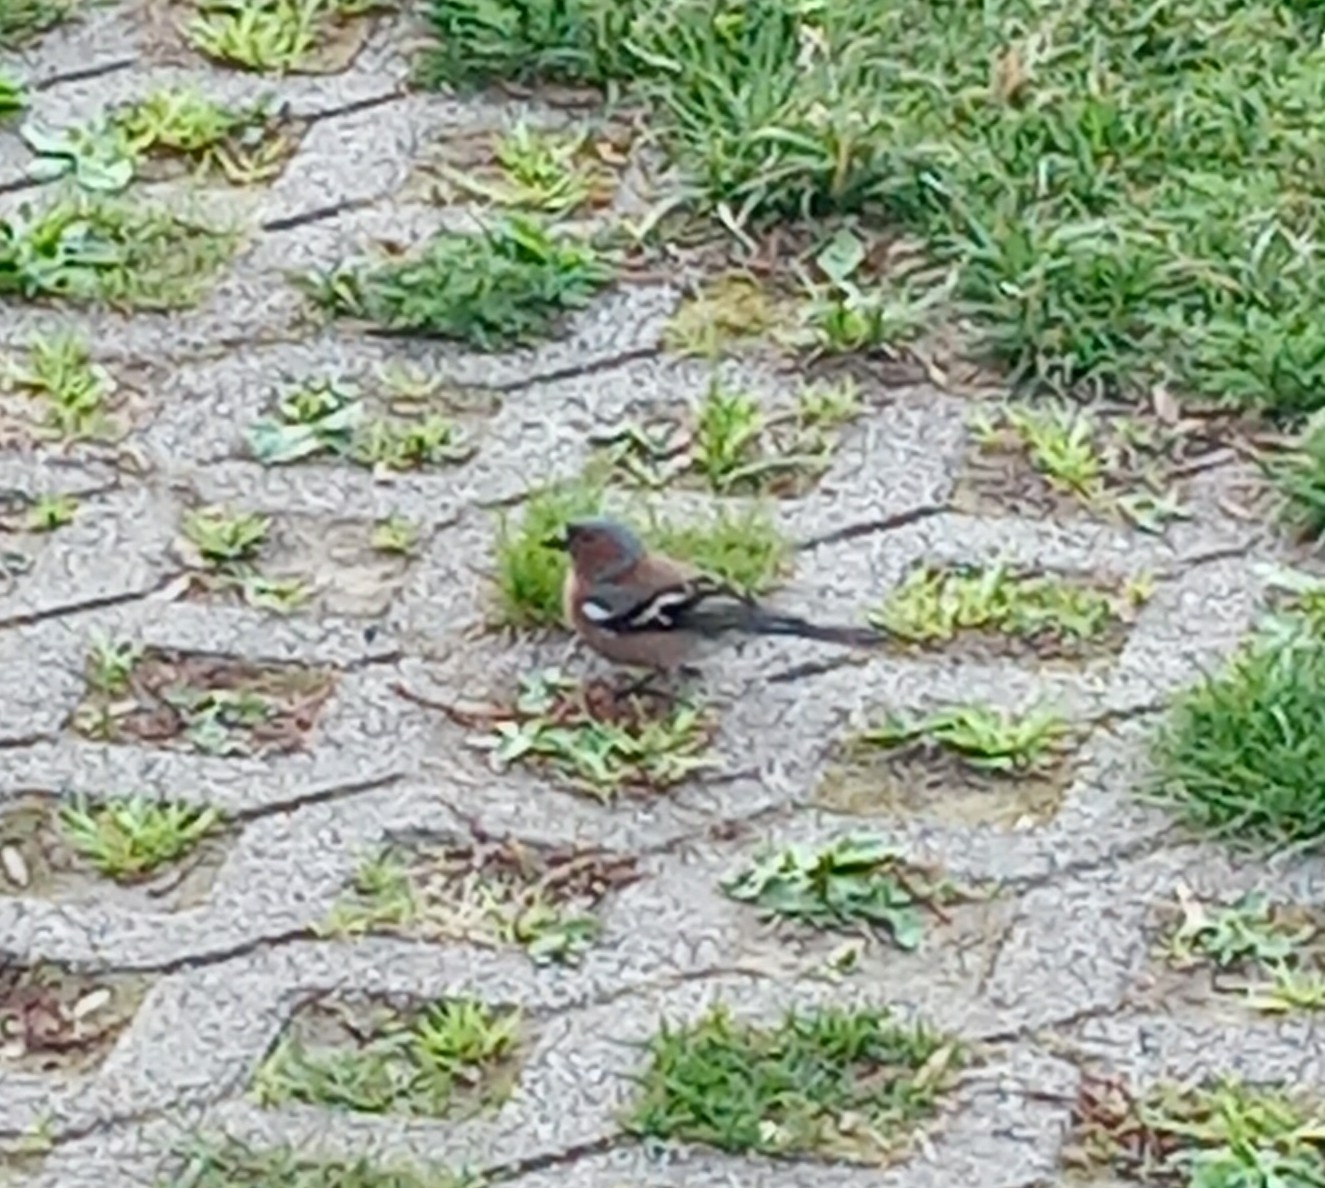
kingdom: Animalia
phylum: Chordata
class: Aves
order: Passeriformes
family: Fringillidae
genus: Fringilla
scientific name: Fringilla coelebs
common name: Common chaffinch
